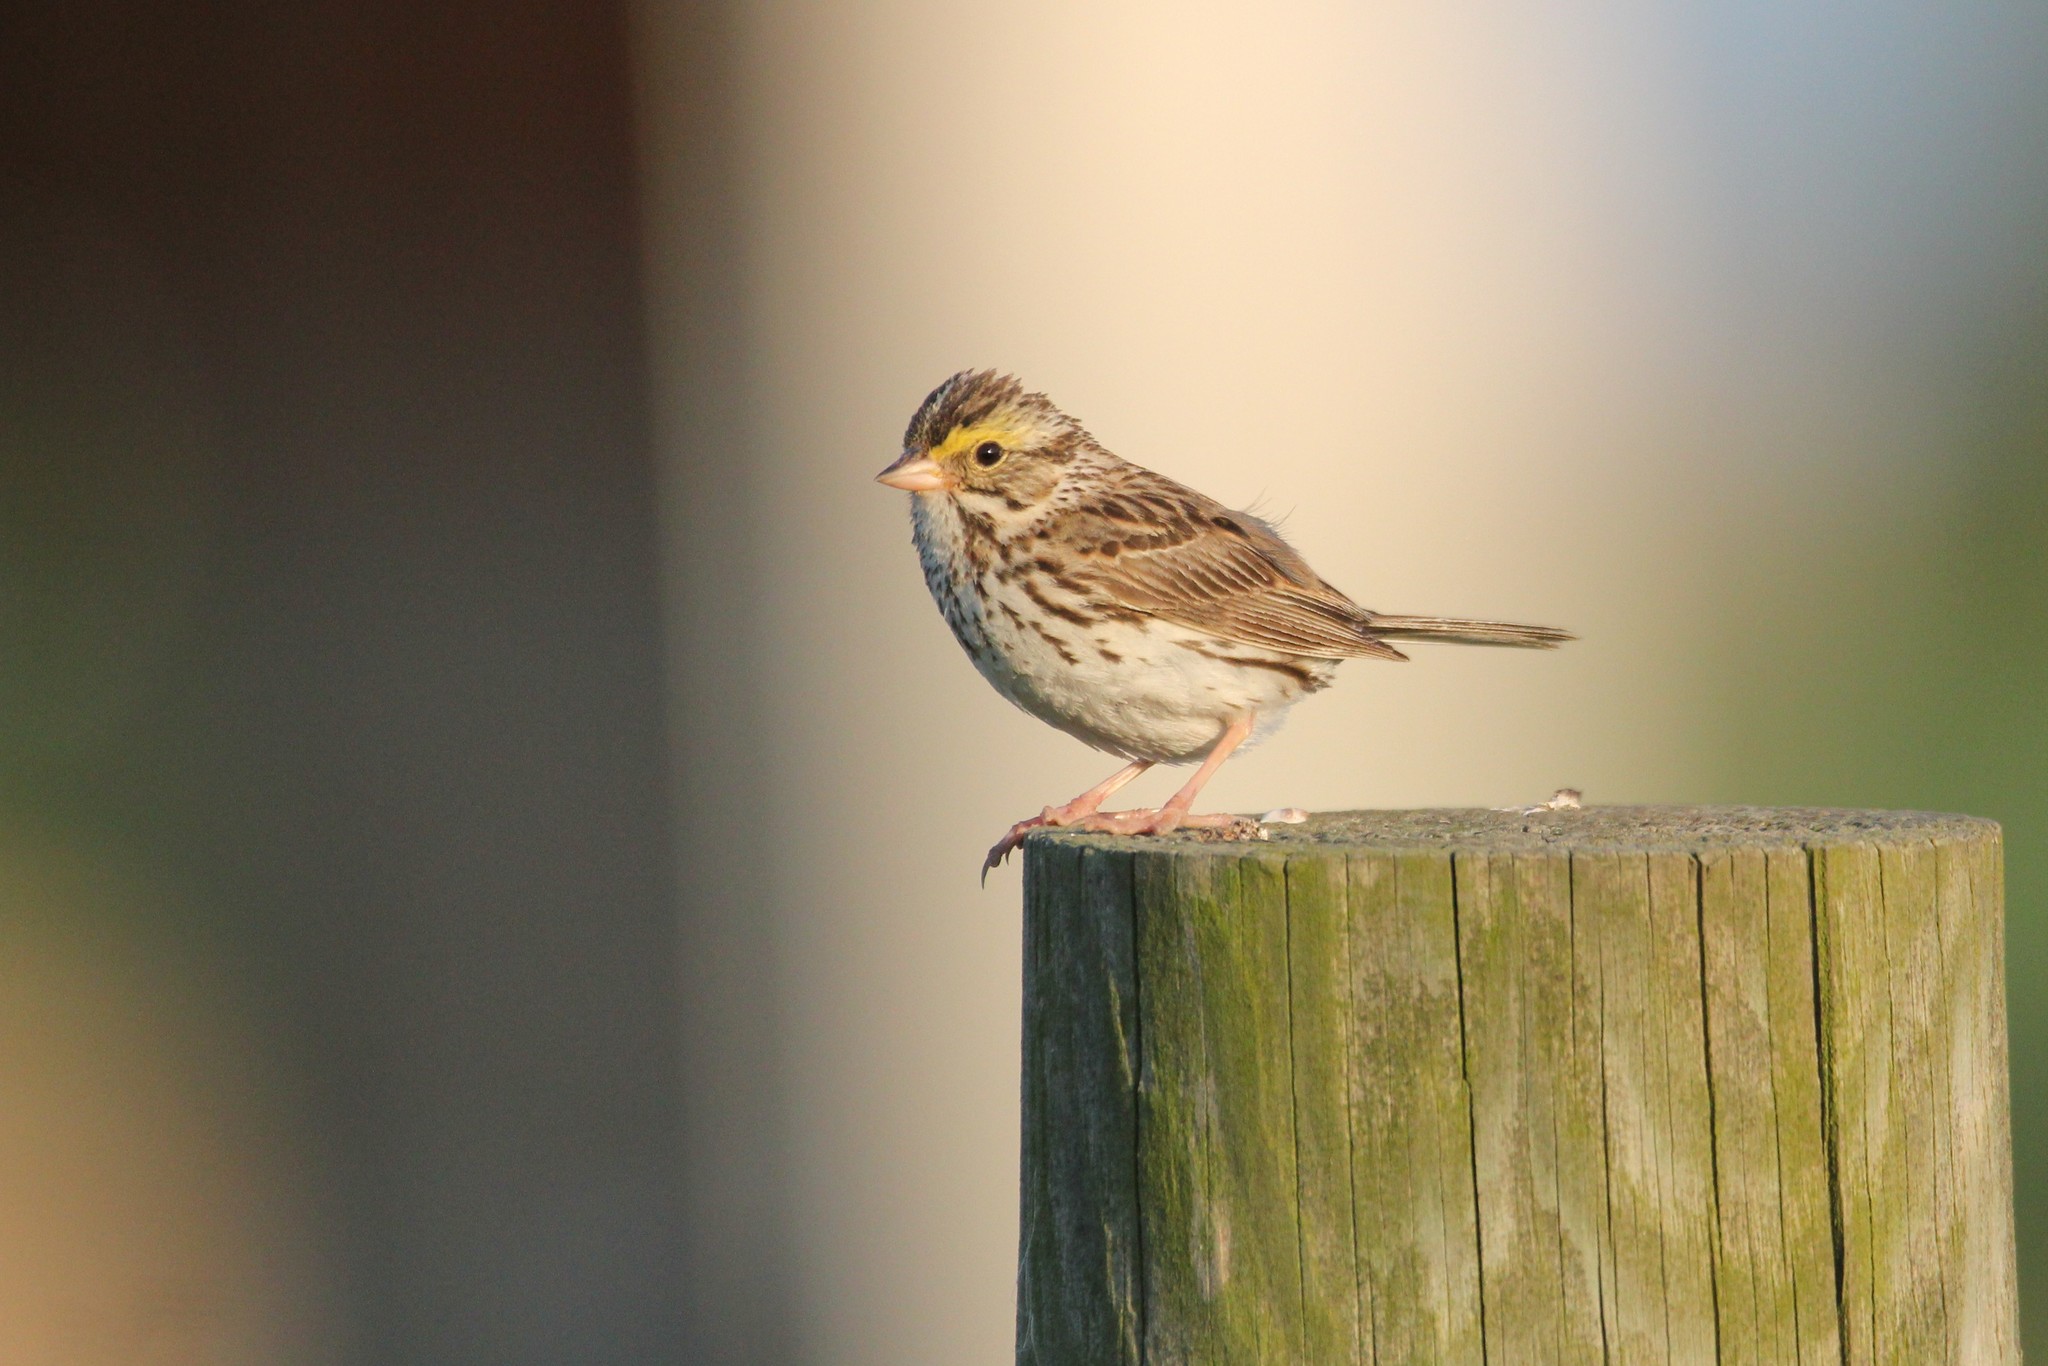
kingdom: Animalia
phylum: Chordata
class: Aves
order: Passeriformes
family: Passerellidae
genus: Passerculus
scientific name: Passerculus sandwichensis
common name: Savannah sparrow
